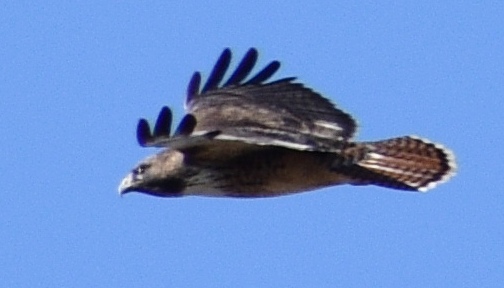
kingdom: Animalia
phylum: Chordata
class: Aves
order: Accipitriformes
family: Accipitridae
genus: Buteo
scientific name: Buteo jamaicensis
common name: Red-tailed hawk
